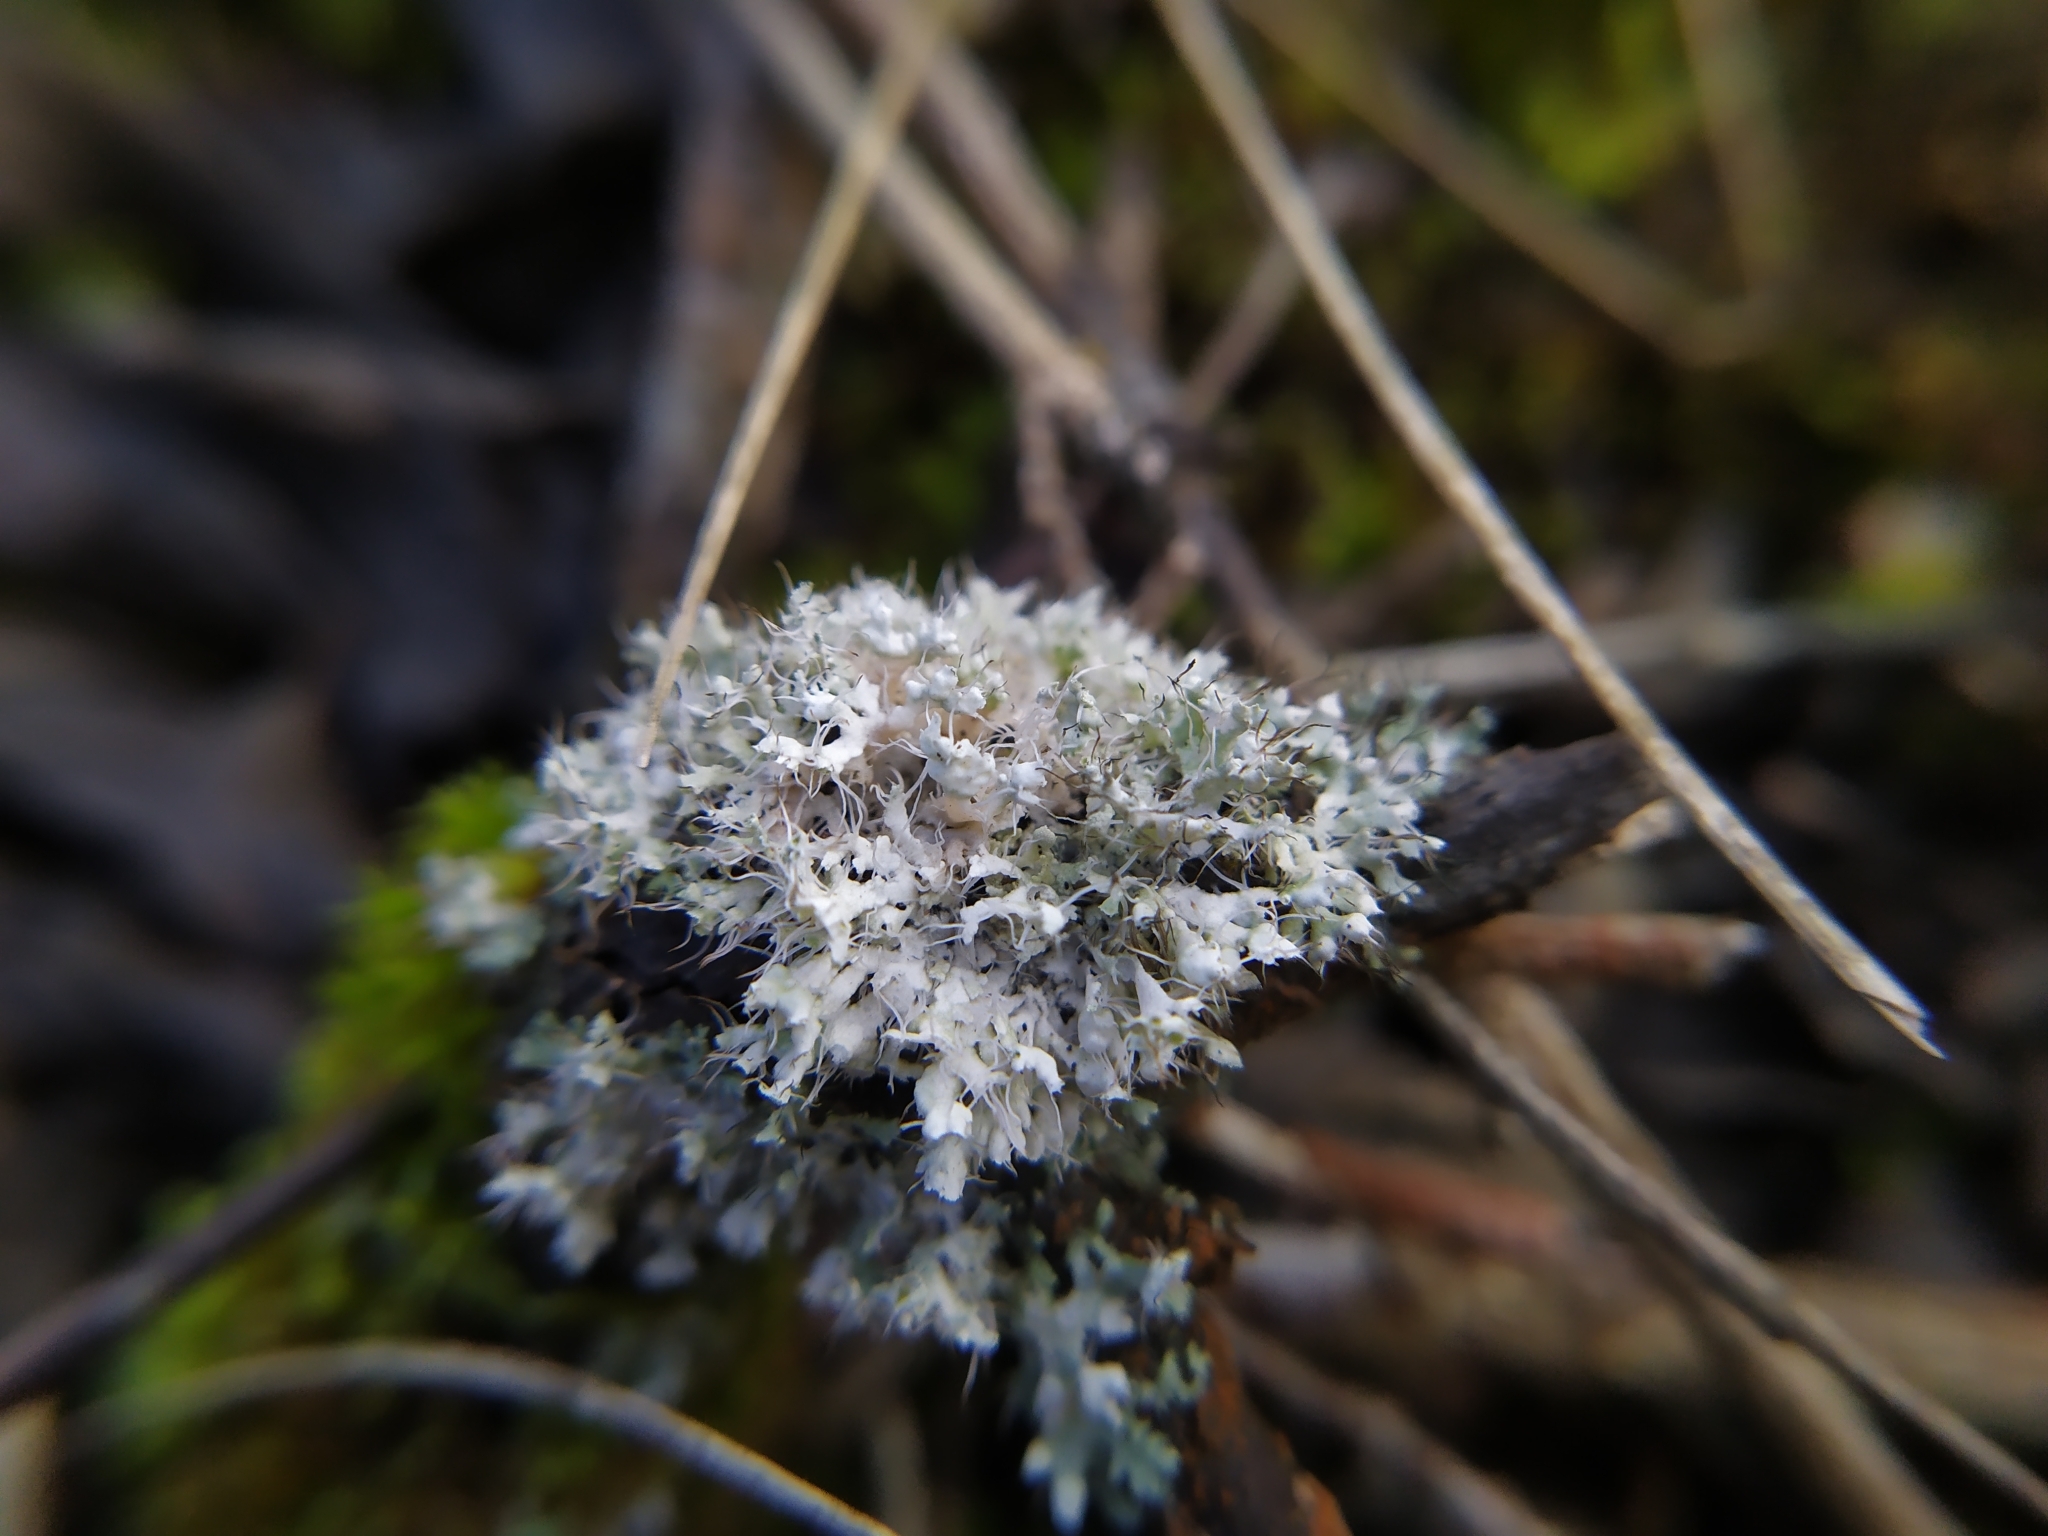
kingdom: Fungi
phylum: Ascomycota
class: Lecanoromycetes
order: Caliciales
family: Physciaceae
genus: Physcia
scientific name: Physcia adscendens
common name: Hooded rosette lichen
